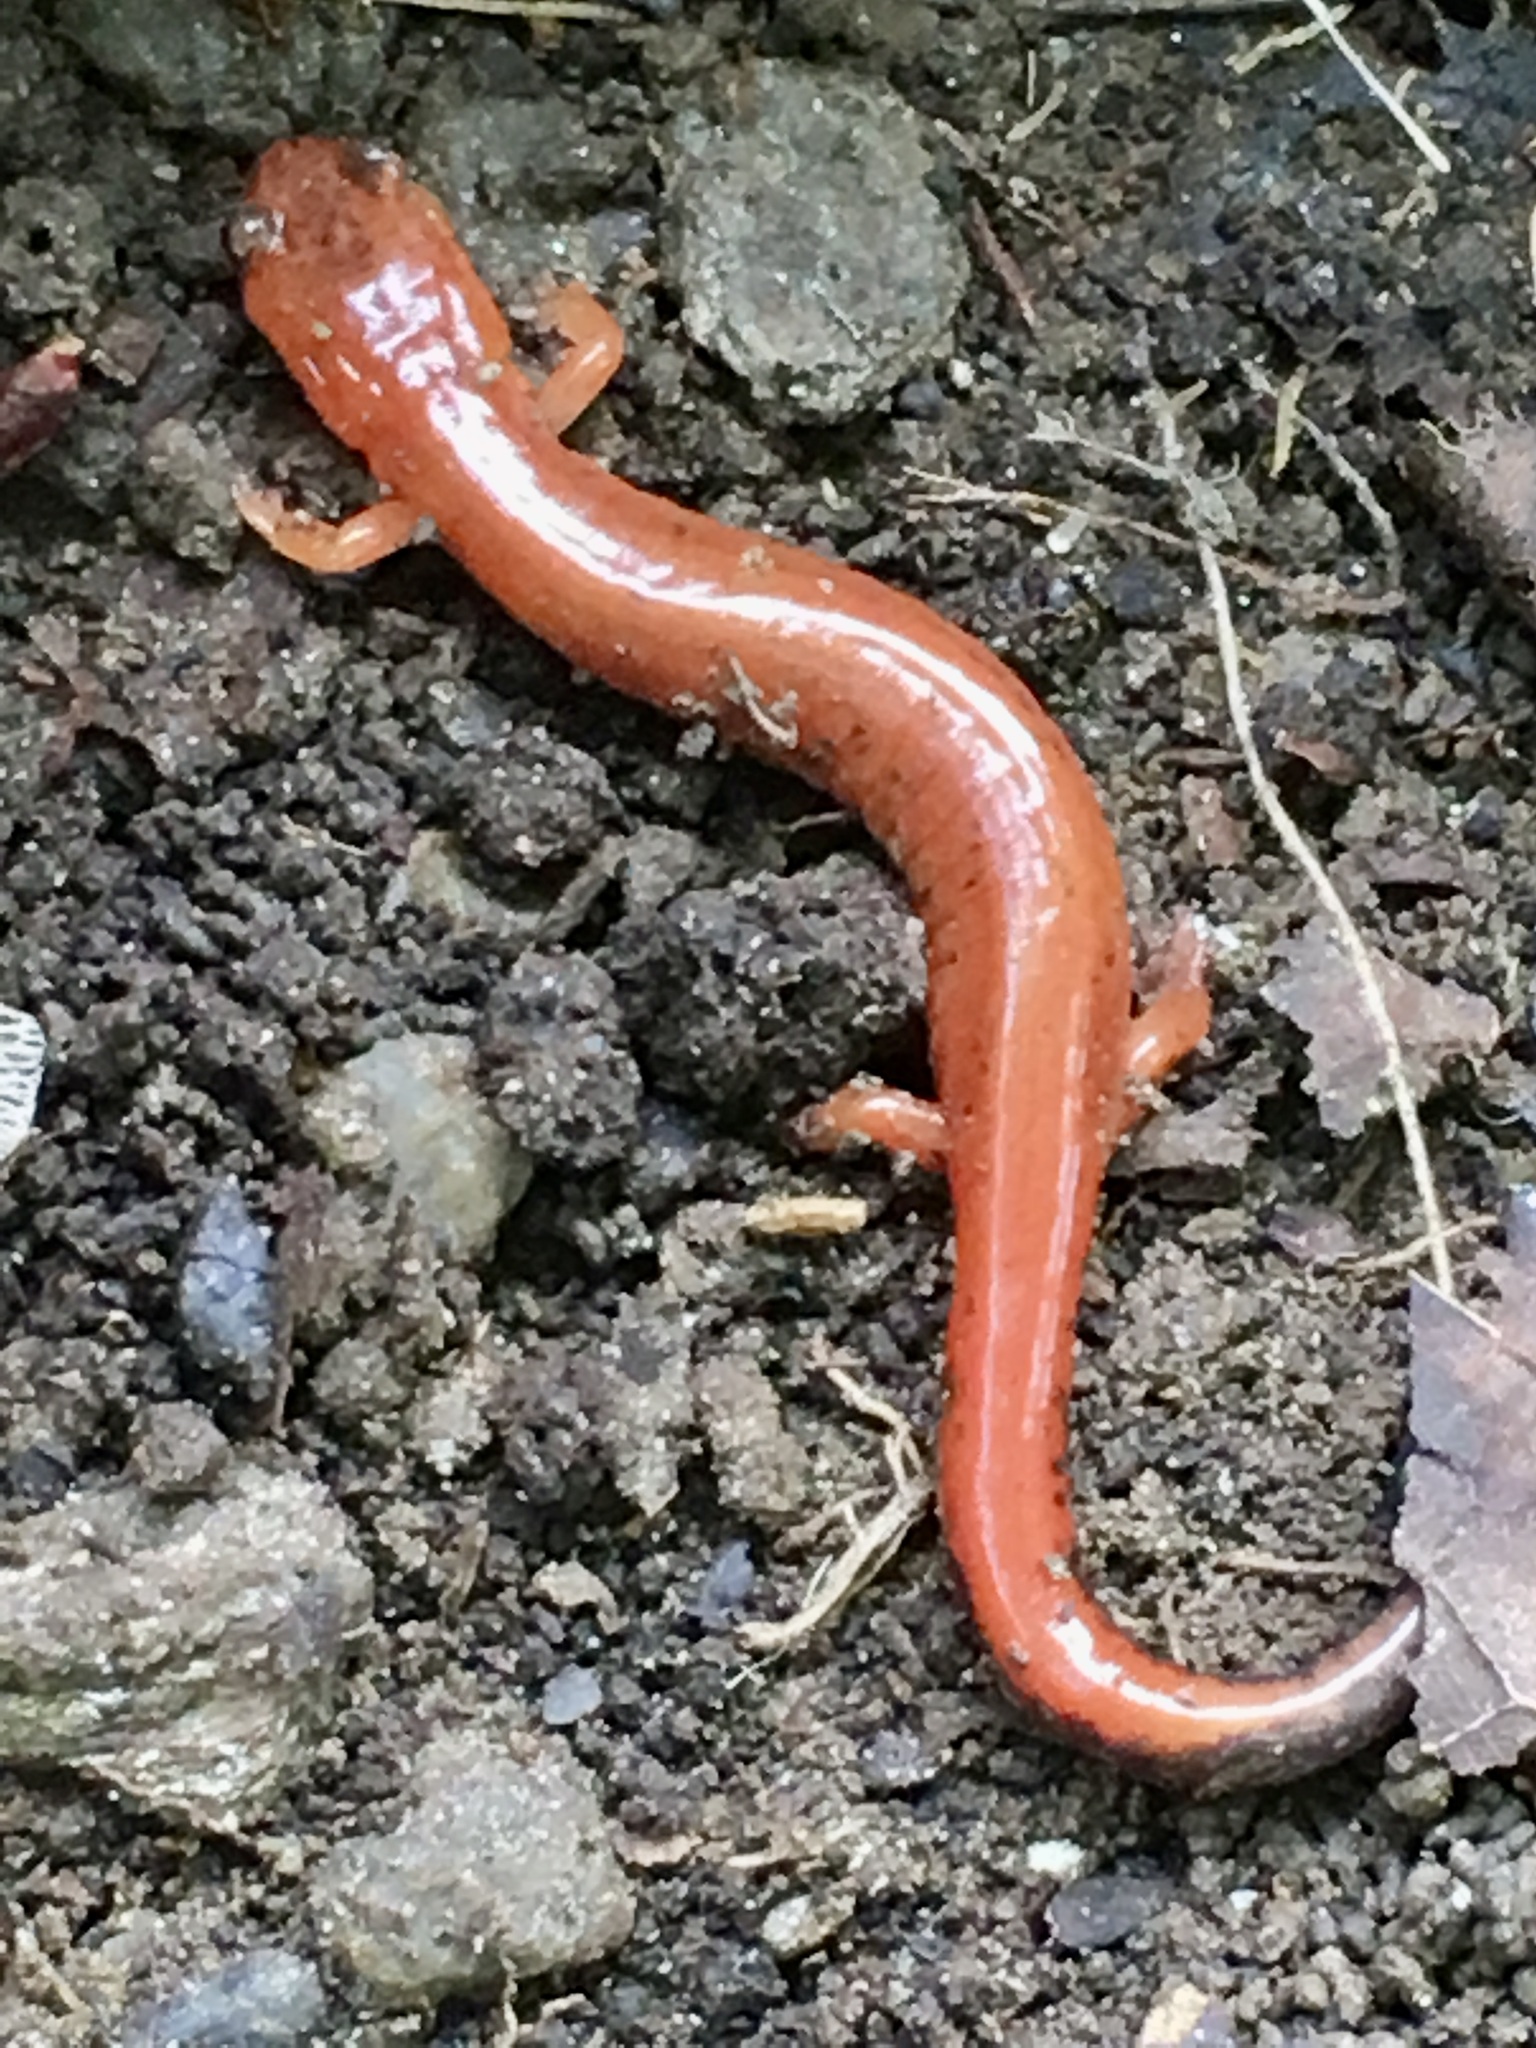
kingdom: Animalia
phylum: Chordata
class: Amphibia
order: Caudata
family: Plethodontidae
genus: Plethodon
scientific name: Plethodon cinereus
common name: Redback salamander
